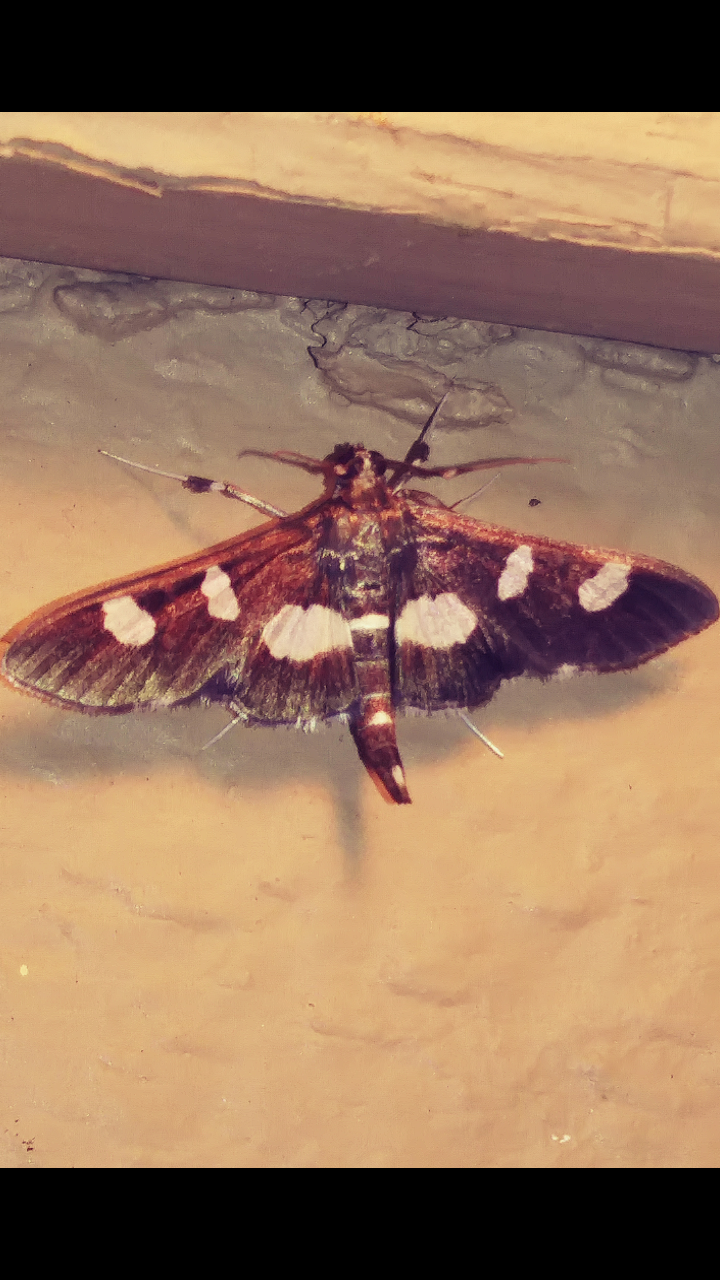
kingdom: Animalia
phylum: Arthropoda
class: Insecta
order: Lepidoptera
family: Crambidae
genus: Desmia
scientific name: Desmia
